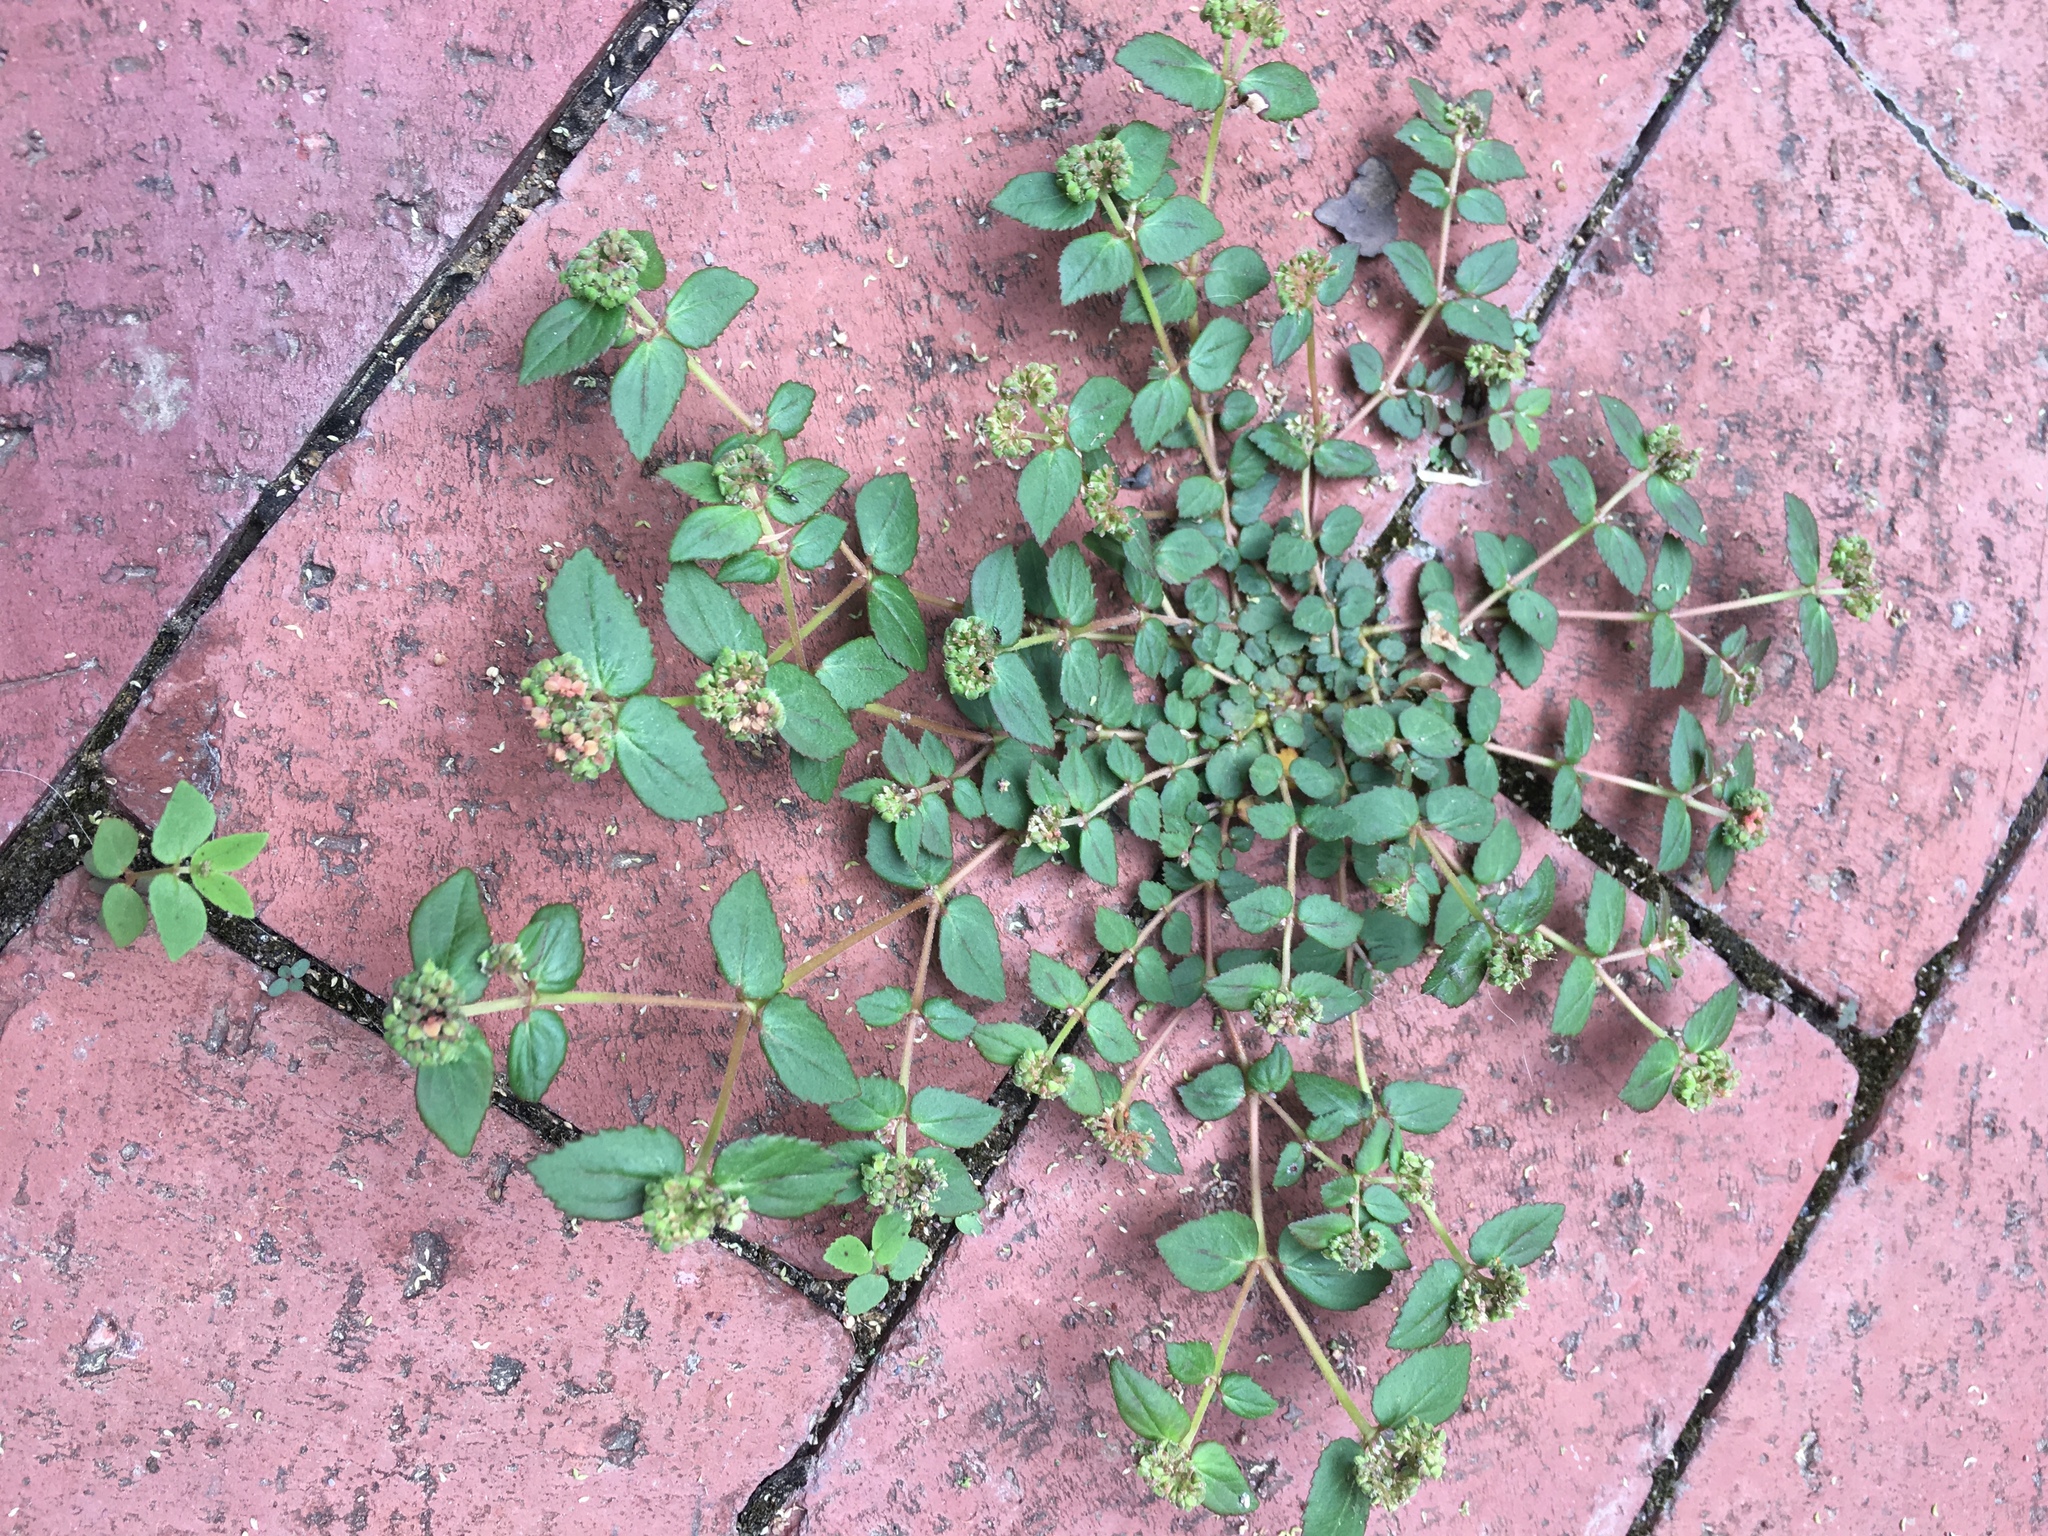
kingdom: Plantae
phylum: Tracheophyta
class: Magnoliopsida
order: Malpighiales
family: Euphorbiaceae
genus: Euphorbia
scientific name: Euphorbia ophthalmica
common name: Florida hammock sandmat
